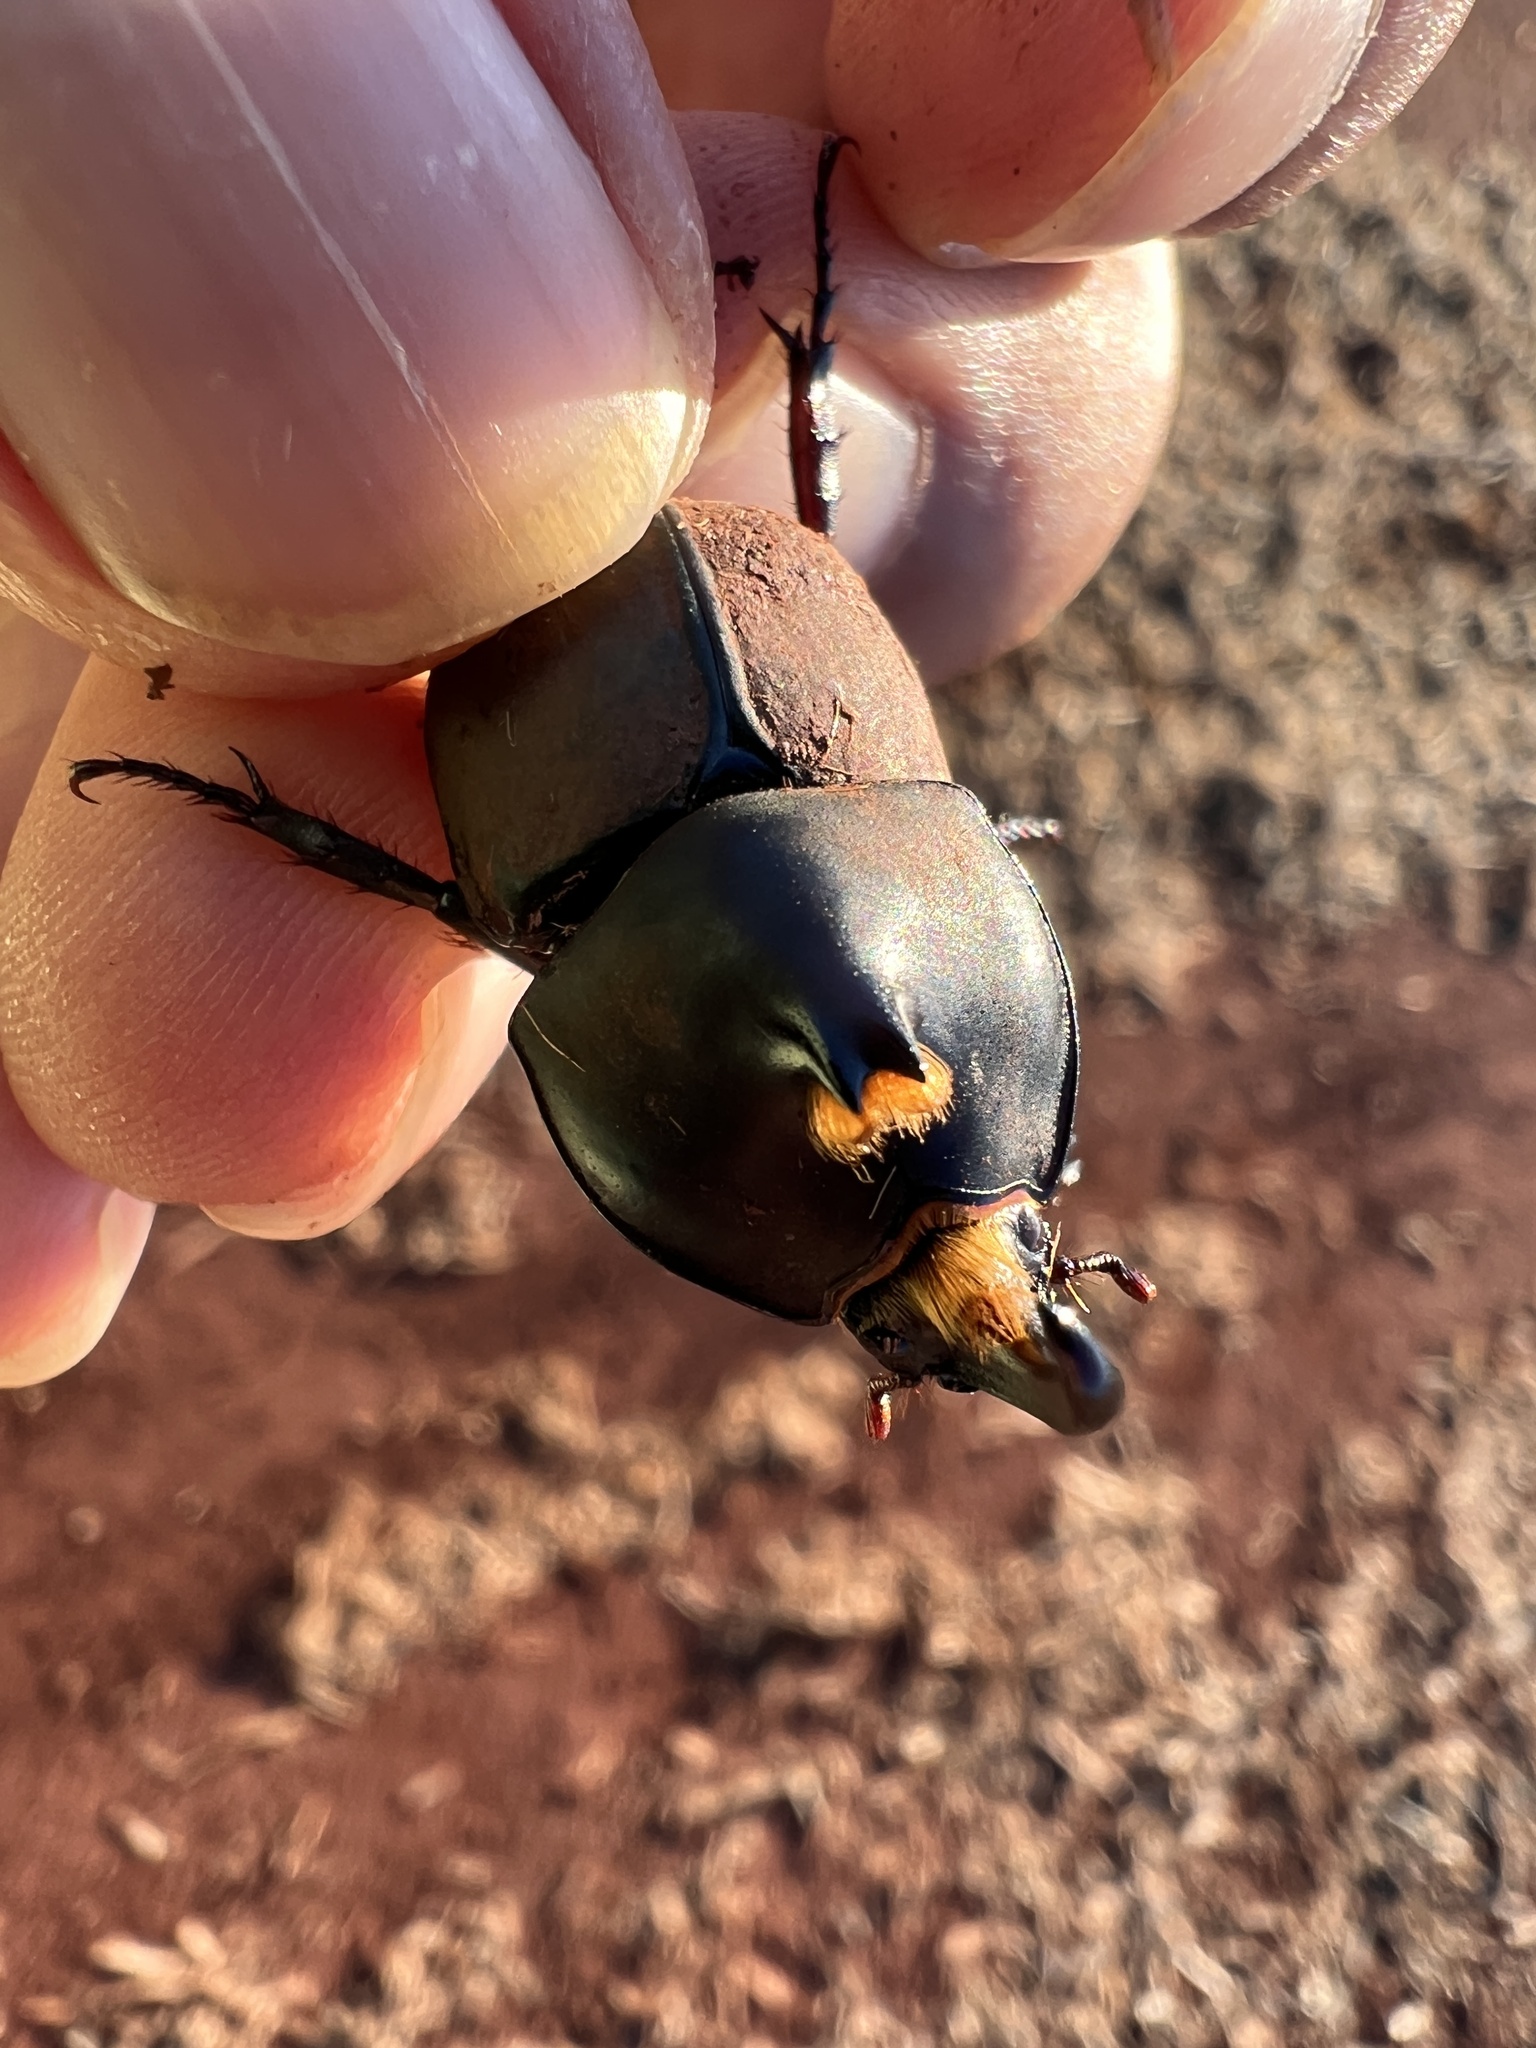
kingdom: Animalia
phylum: Arthropoda
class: Insecta
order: Coleoptera
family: Scarabaeidae
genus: Diloboderus
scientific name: Diloboderus abderus
